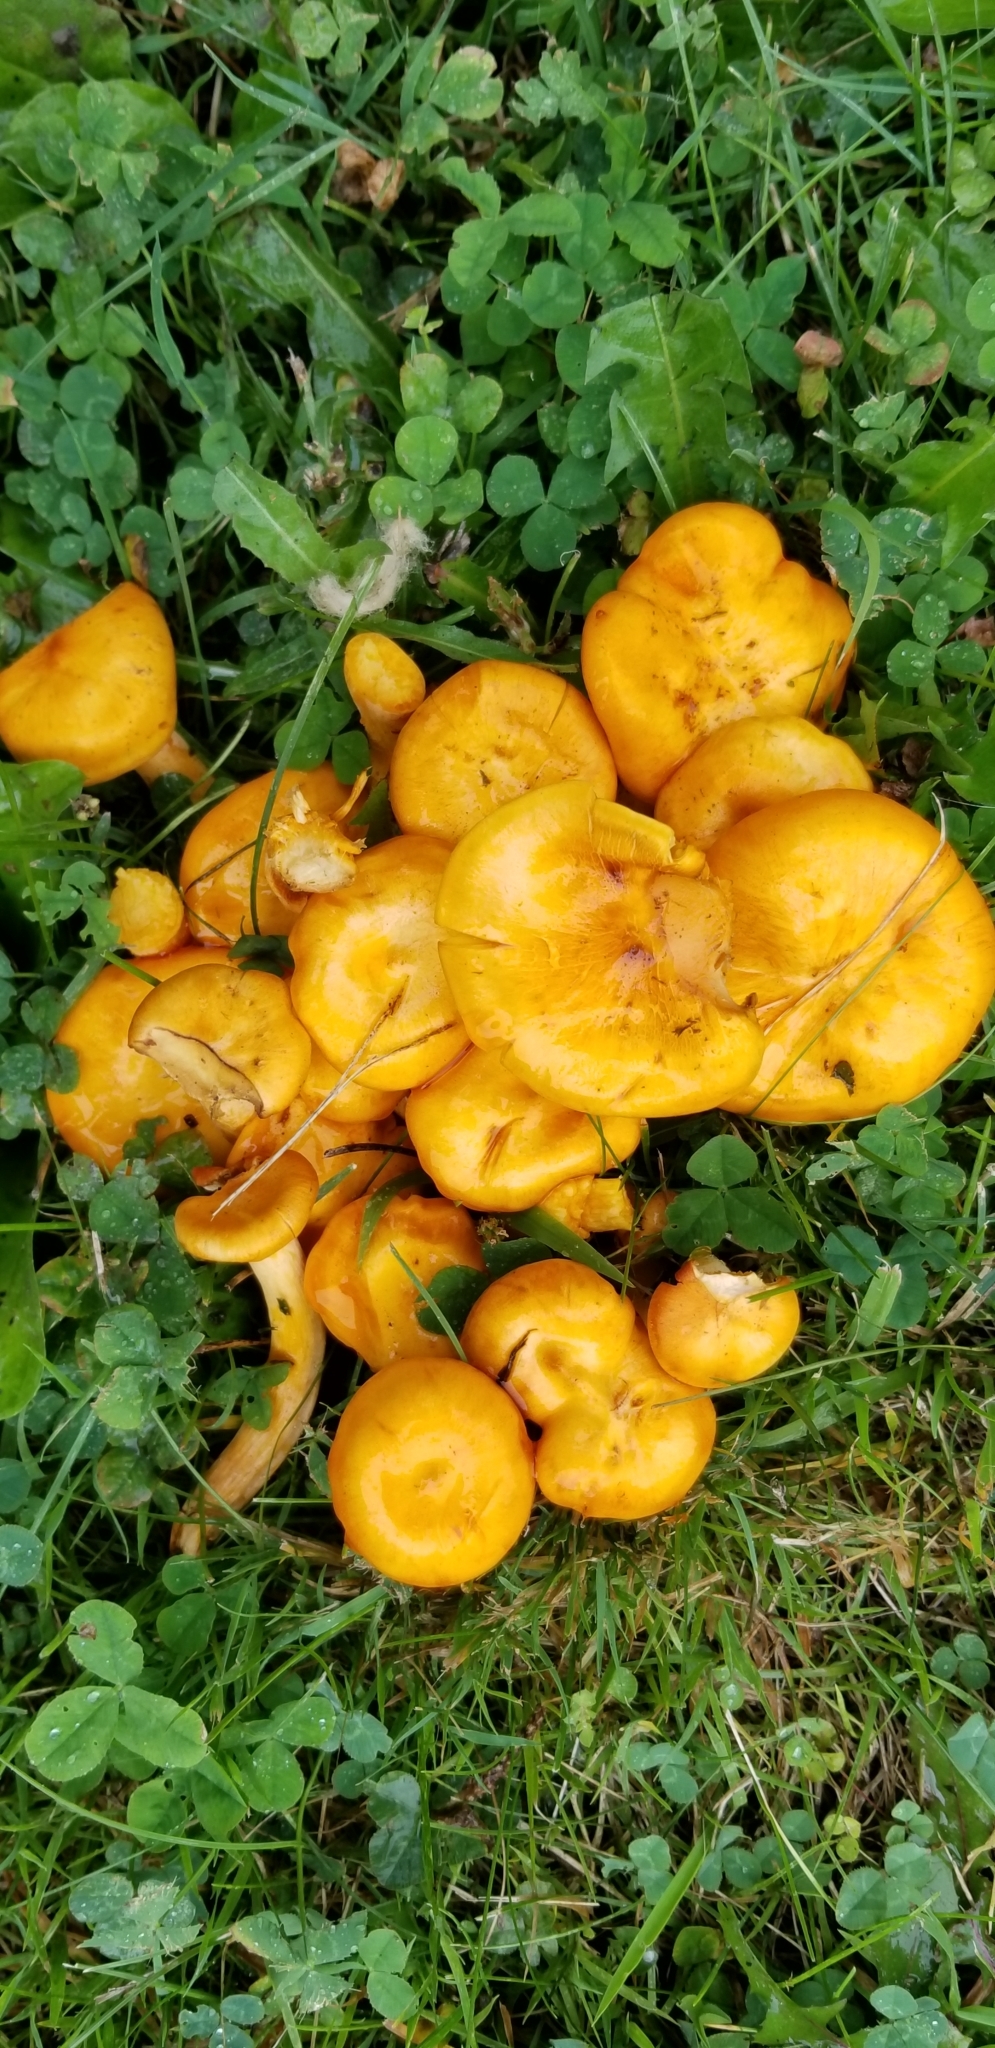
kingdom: Fungi
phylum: Basidiomycota
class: Agaricomycetes
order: Agaricales
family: Omphalotaceae
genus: Omphalotus
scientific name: Omphalotus illudens
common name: Jack o lantern
